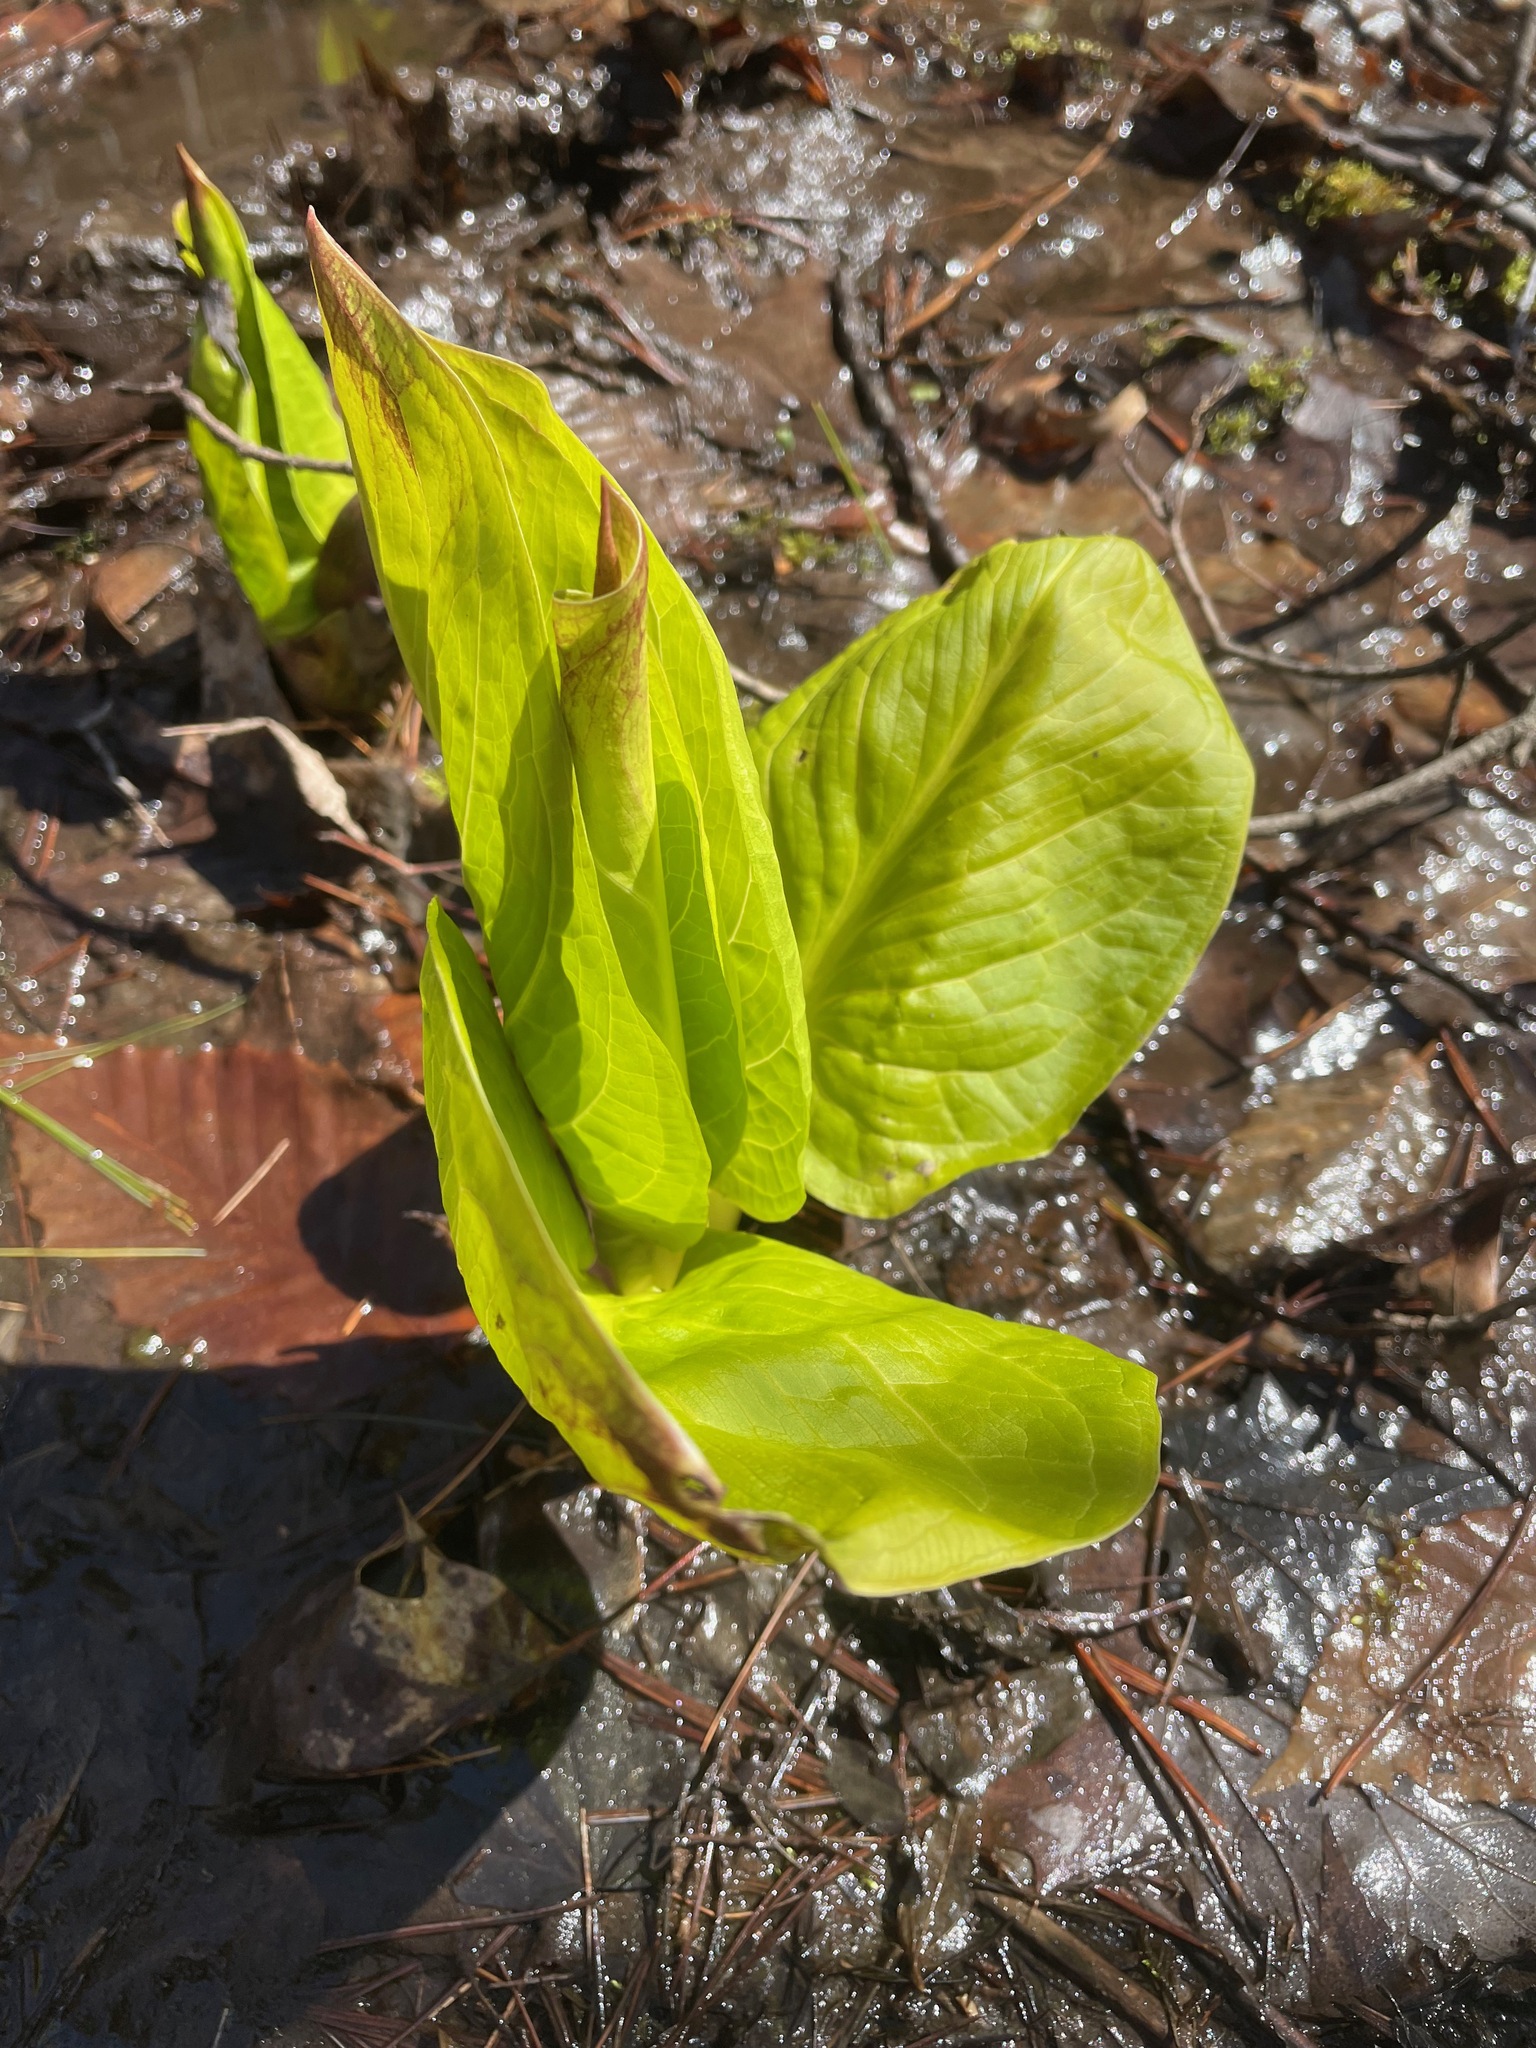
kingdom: Plantae
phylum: Tracheophyta
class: Liliopsida
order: Alismatales
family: Araceae
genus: Symplocarpus
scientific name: Symplocarpus foetidus
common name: Eastern skunk cabbage
